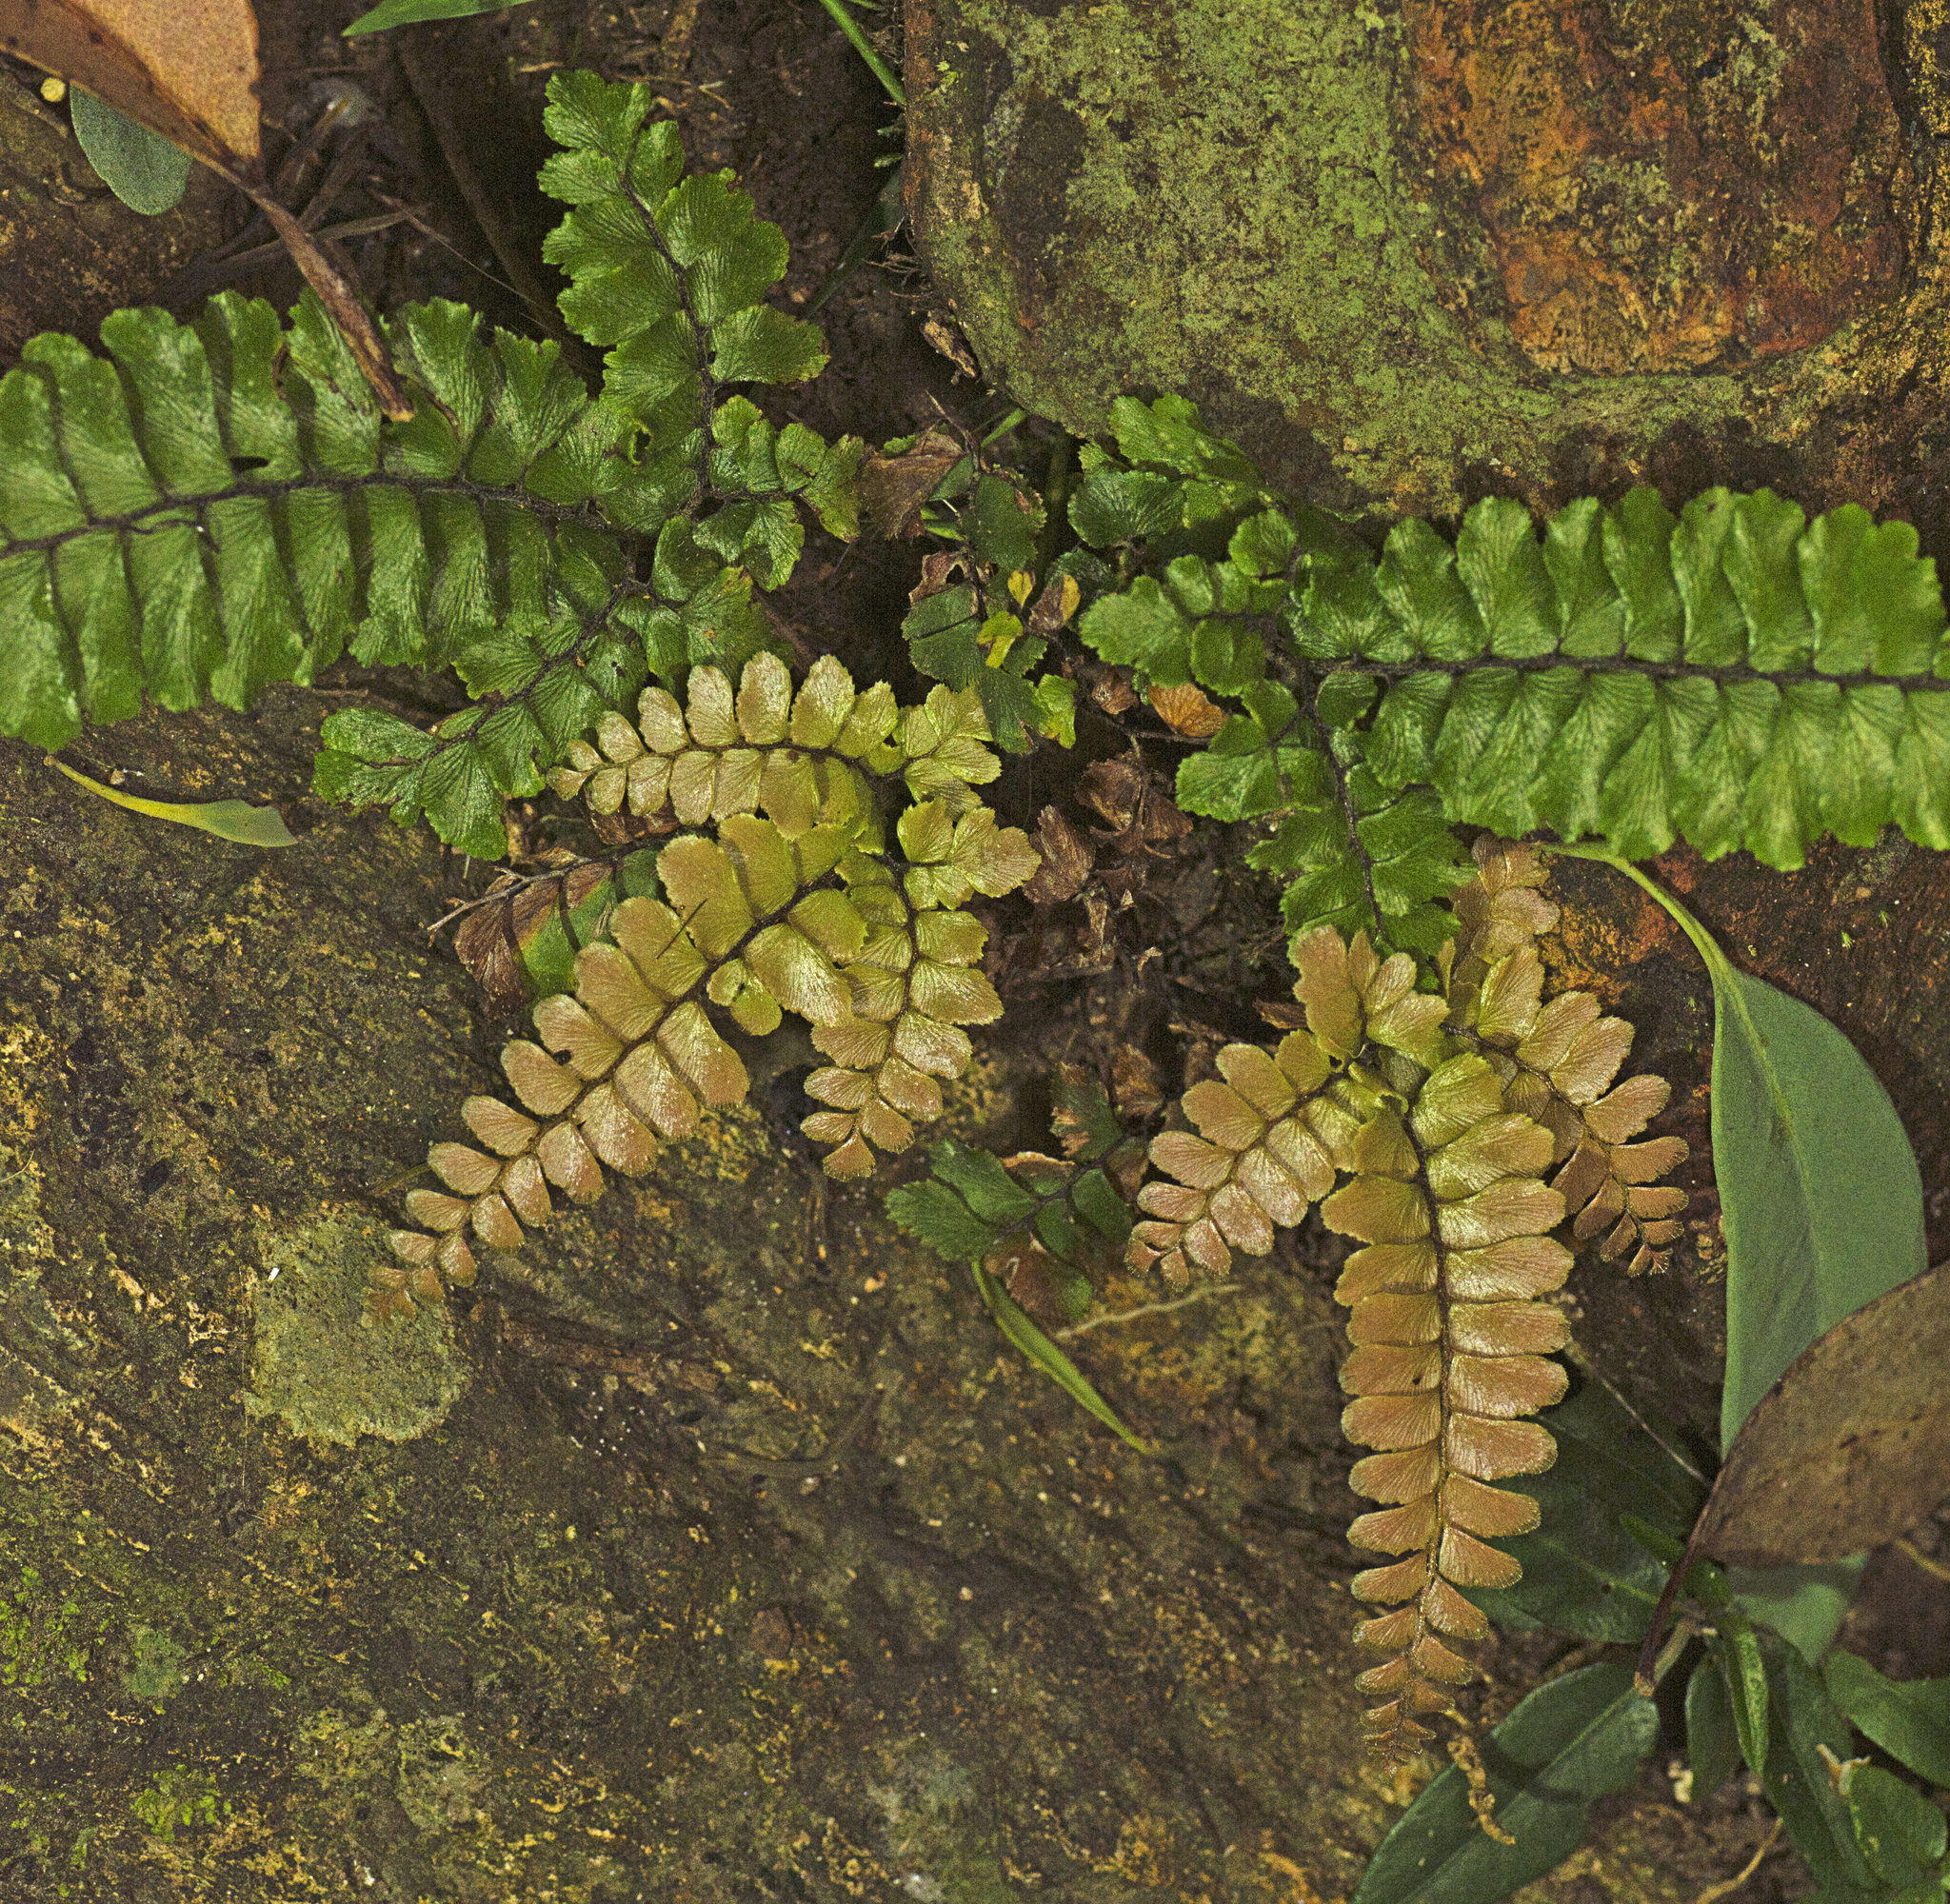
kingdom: Plantae
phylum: Tracheophyta
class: Polypodiopsida
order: Polypodiales
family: Pteridaceae
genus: Adiantum
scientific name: Adiantum hispidulum
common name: Rough maidenhair
